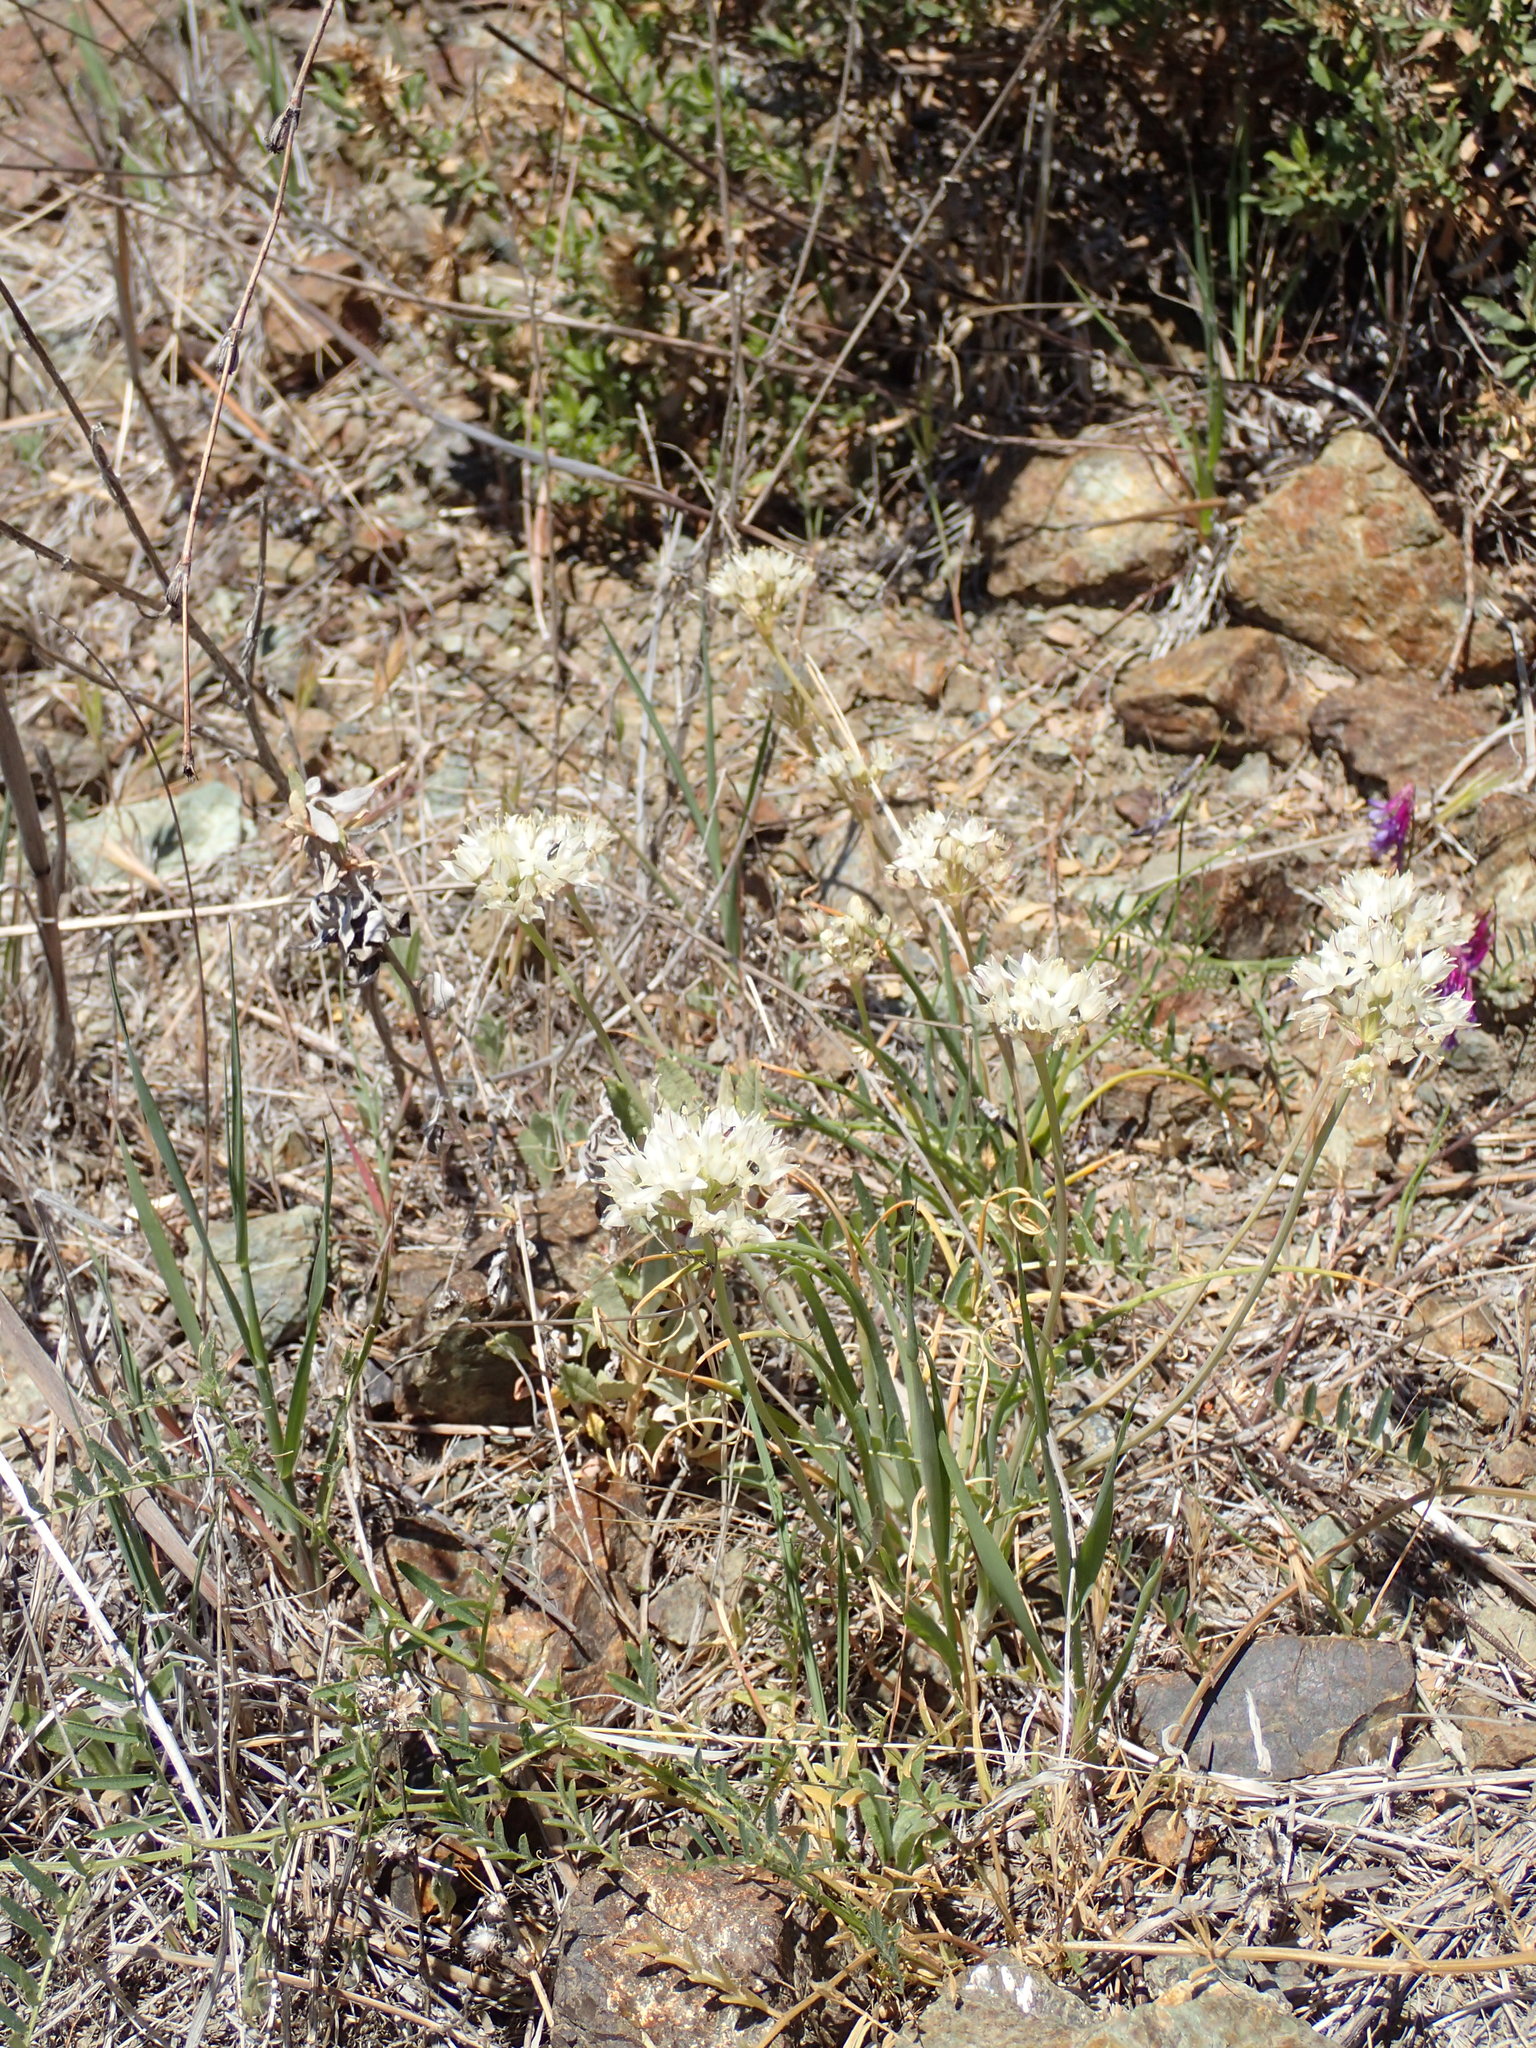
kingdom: Plantae
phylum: Tracheophyta
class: Liliopsida
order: Asparagales
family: Amaryllidaceae
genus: Allium
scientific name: Allium haematochiton
